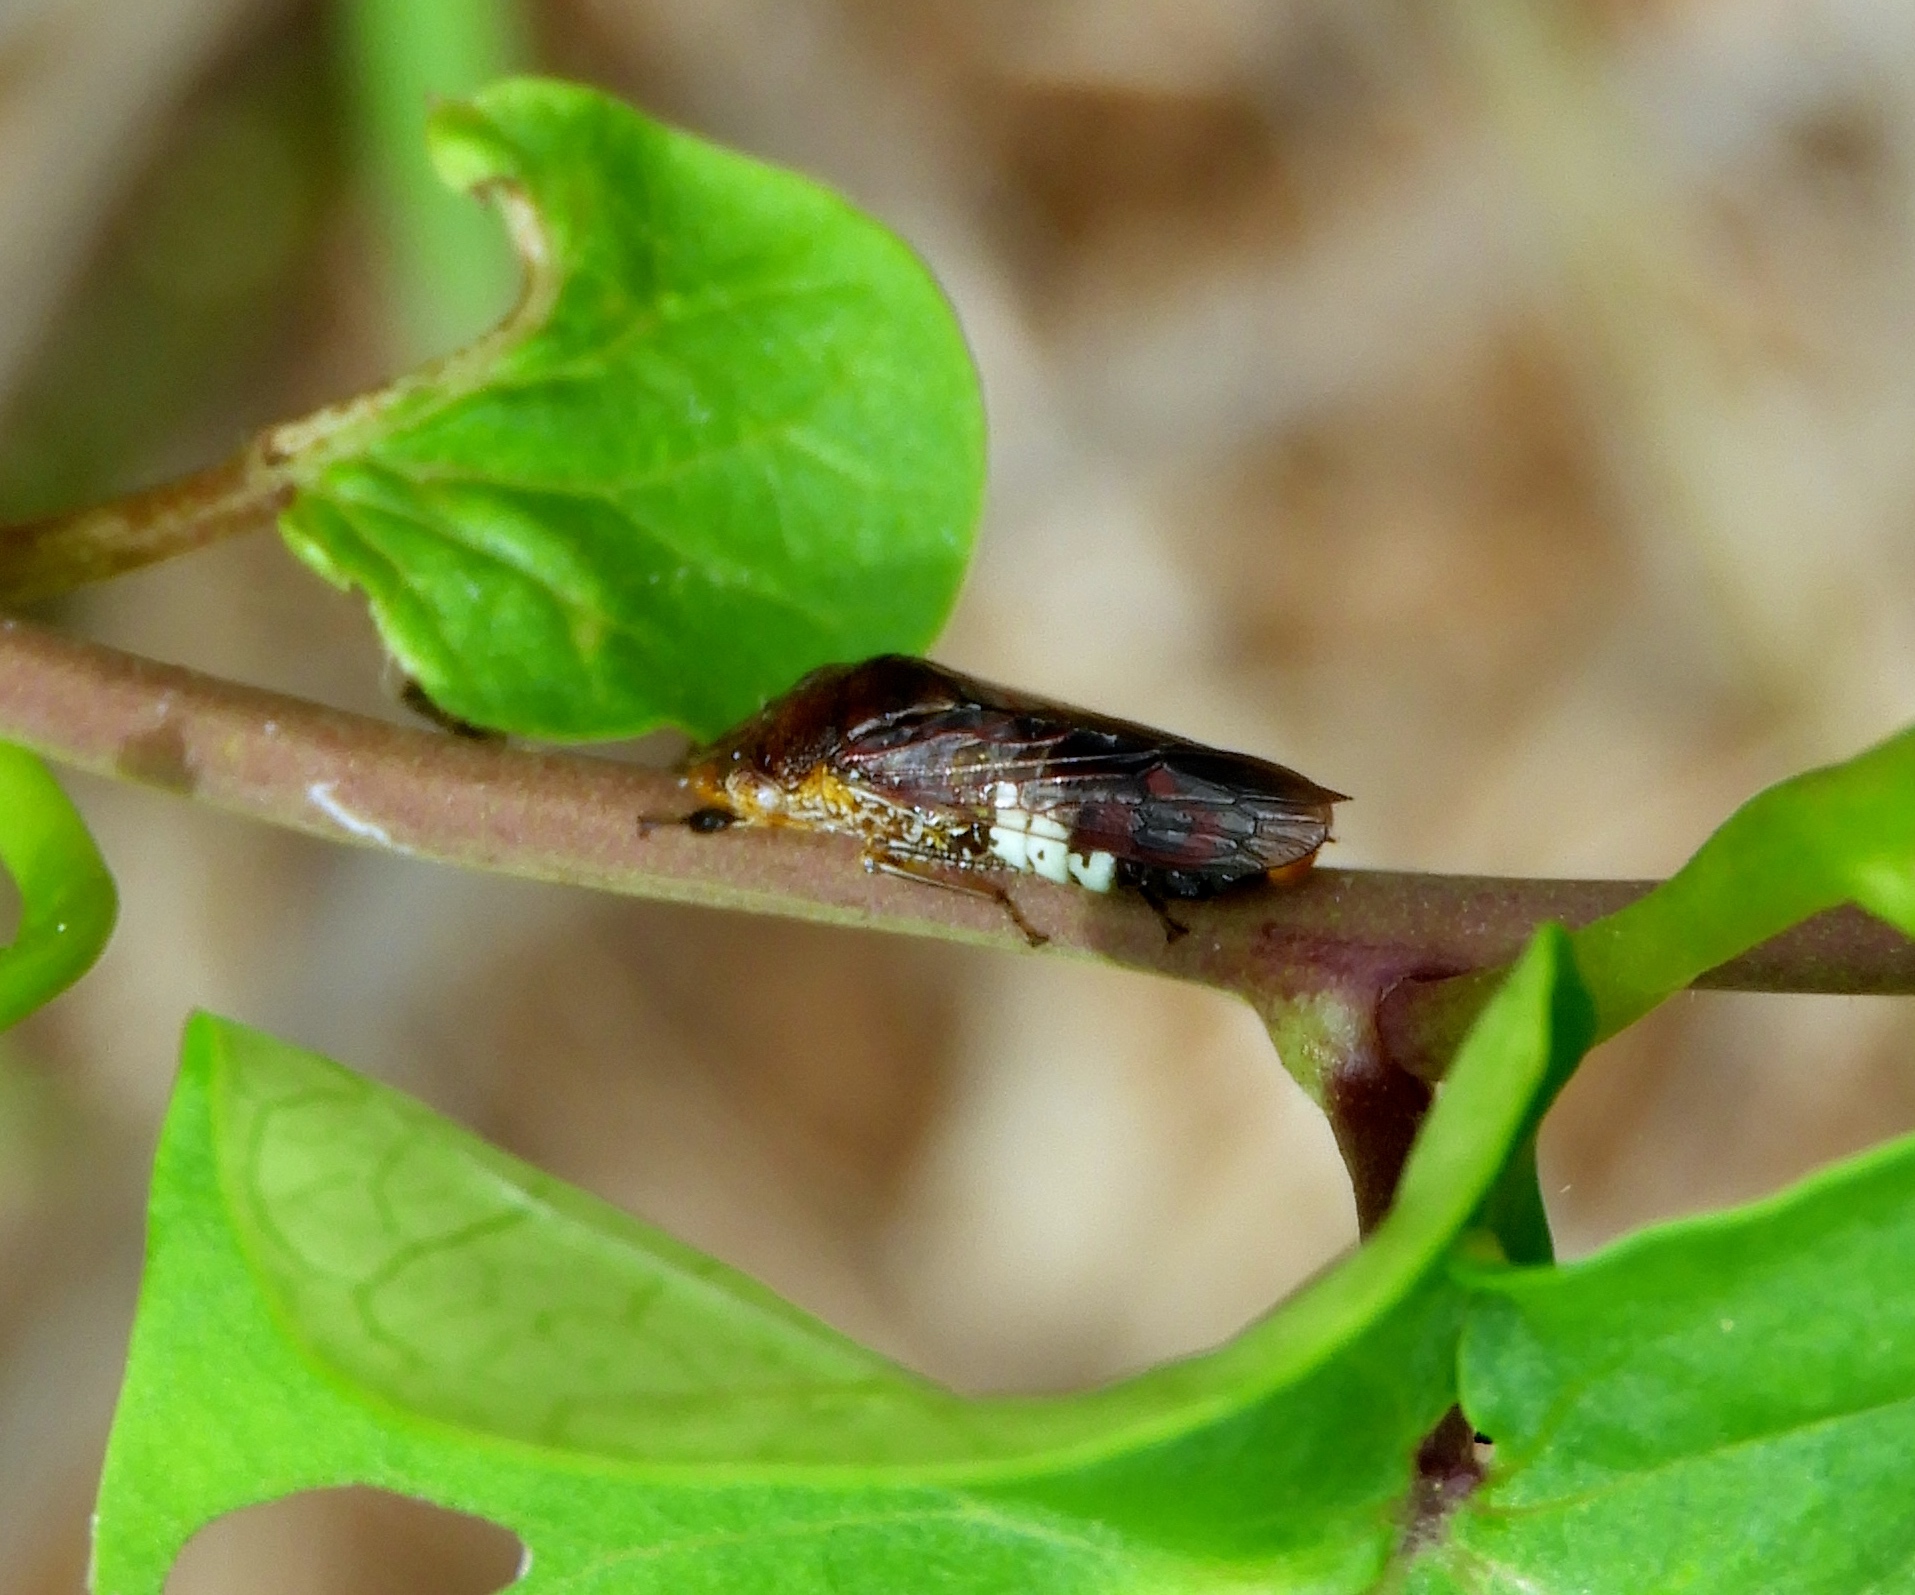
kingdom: Animalia
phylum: Arthropoda
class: Insecta
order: Hemiptera
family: Cicadellidae
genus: Homalodisca
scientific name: Homalodisca ichthyocephala
